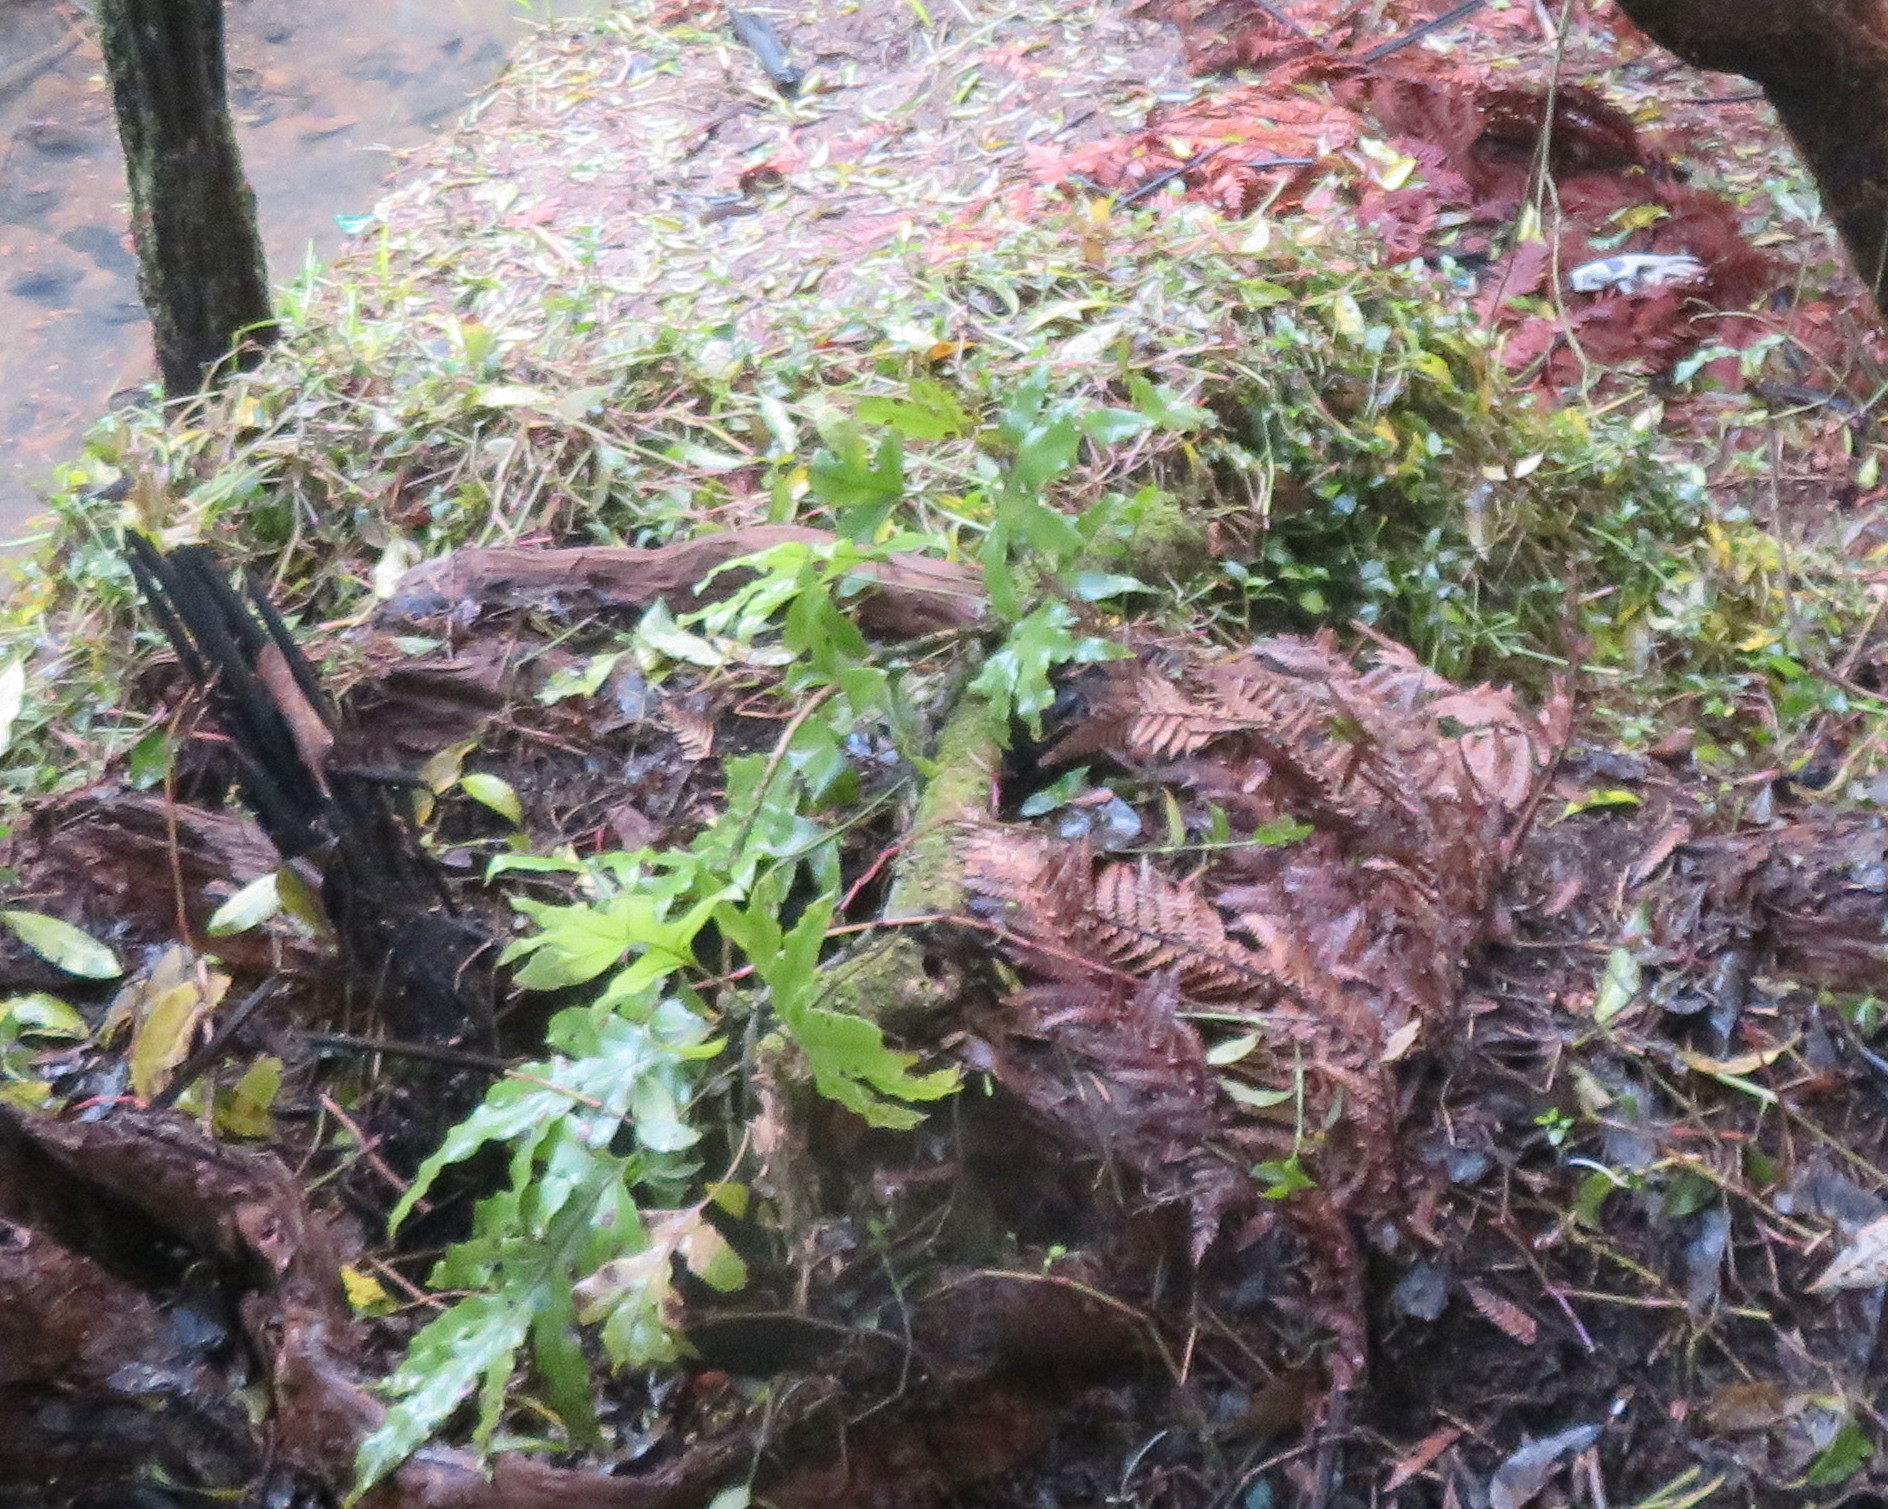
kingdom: Plantae
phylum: Tracheophyta
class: Polypodiopsida
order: Polypodiales
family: Polypodiaceae
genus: Lecanopteris
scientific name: Lecanopteris pustulata
